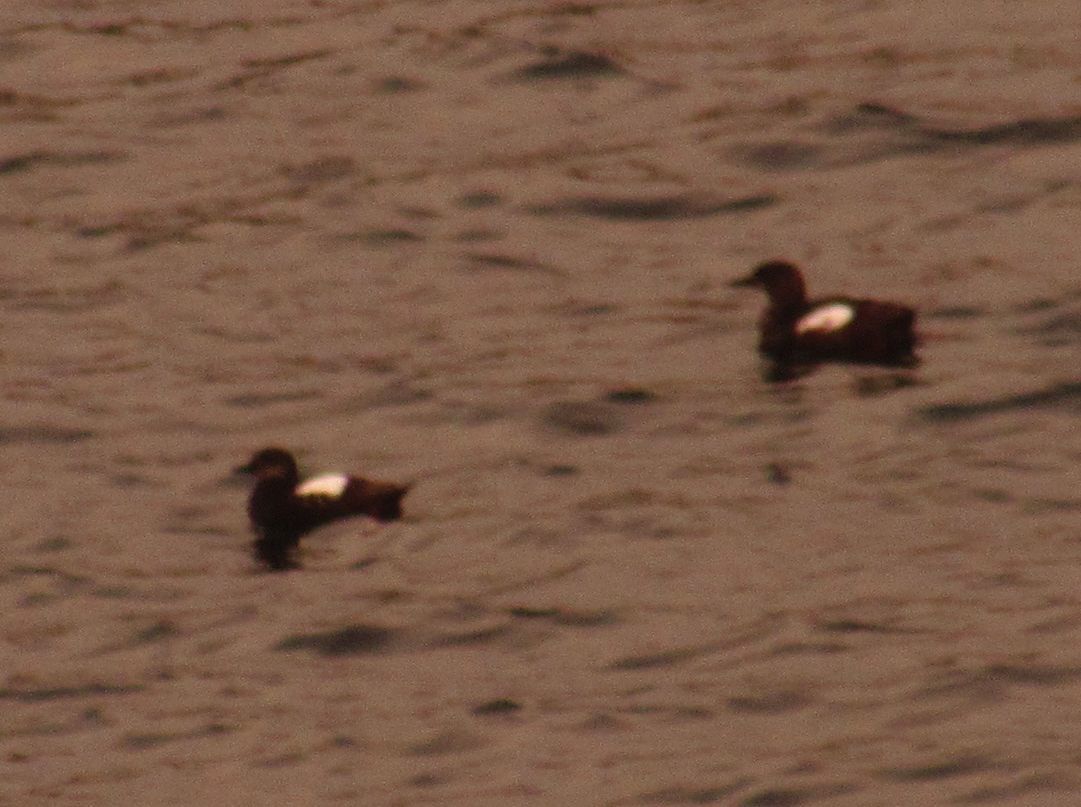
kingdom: Animalia
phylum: Chordata
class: Aves
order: Charadriiformes
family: Alcidae
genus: Cepphus
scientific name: Cepphus grylle
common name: Black guillemot
